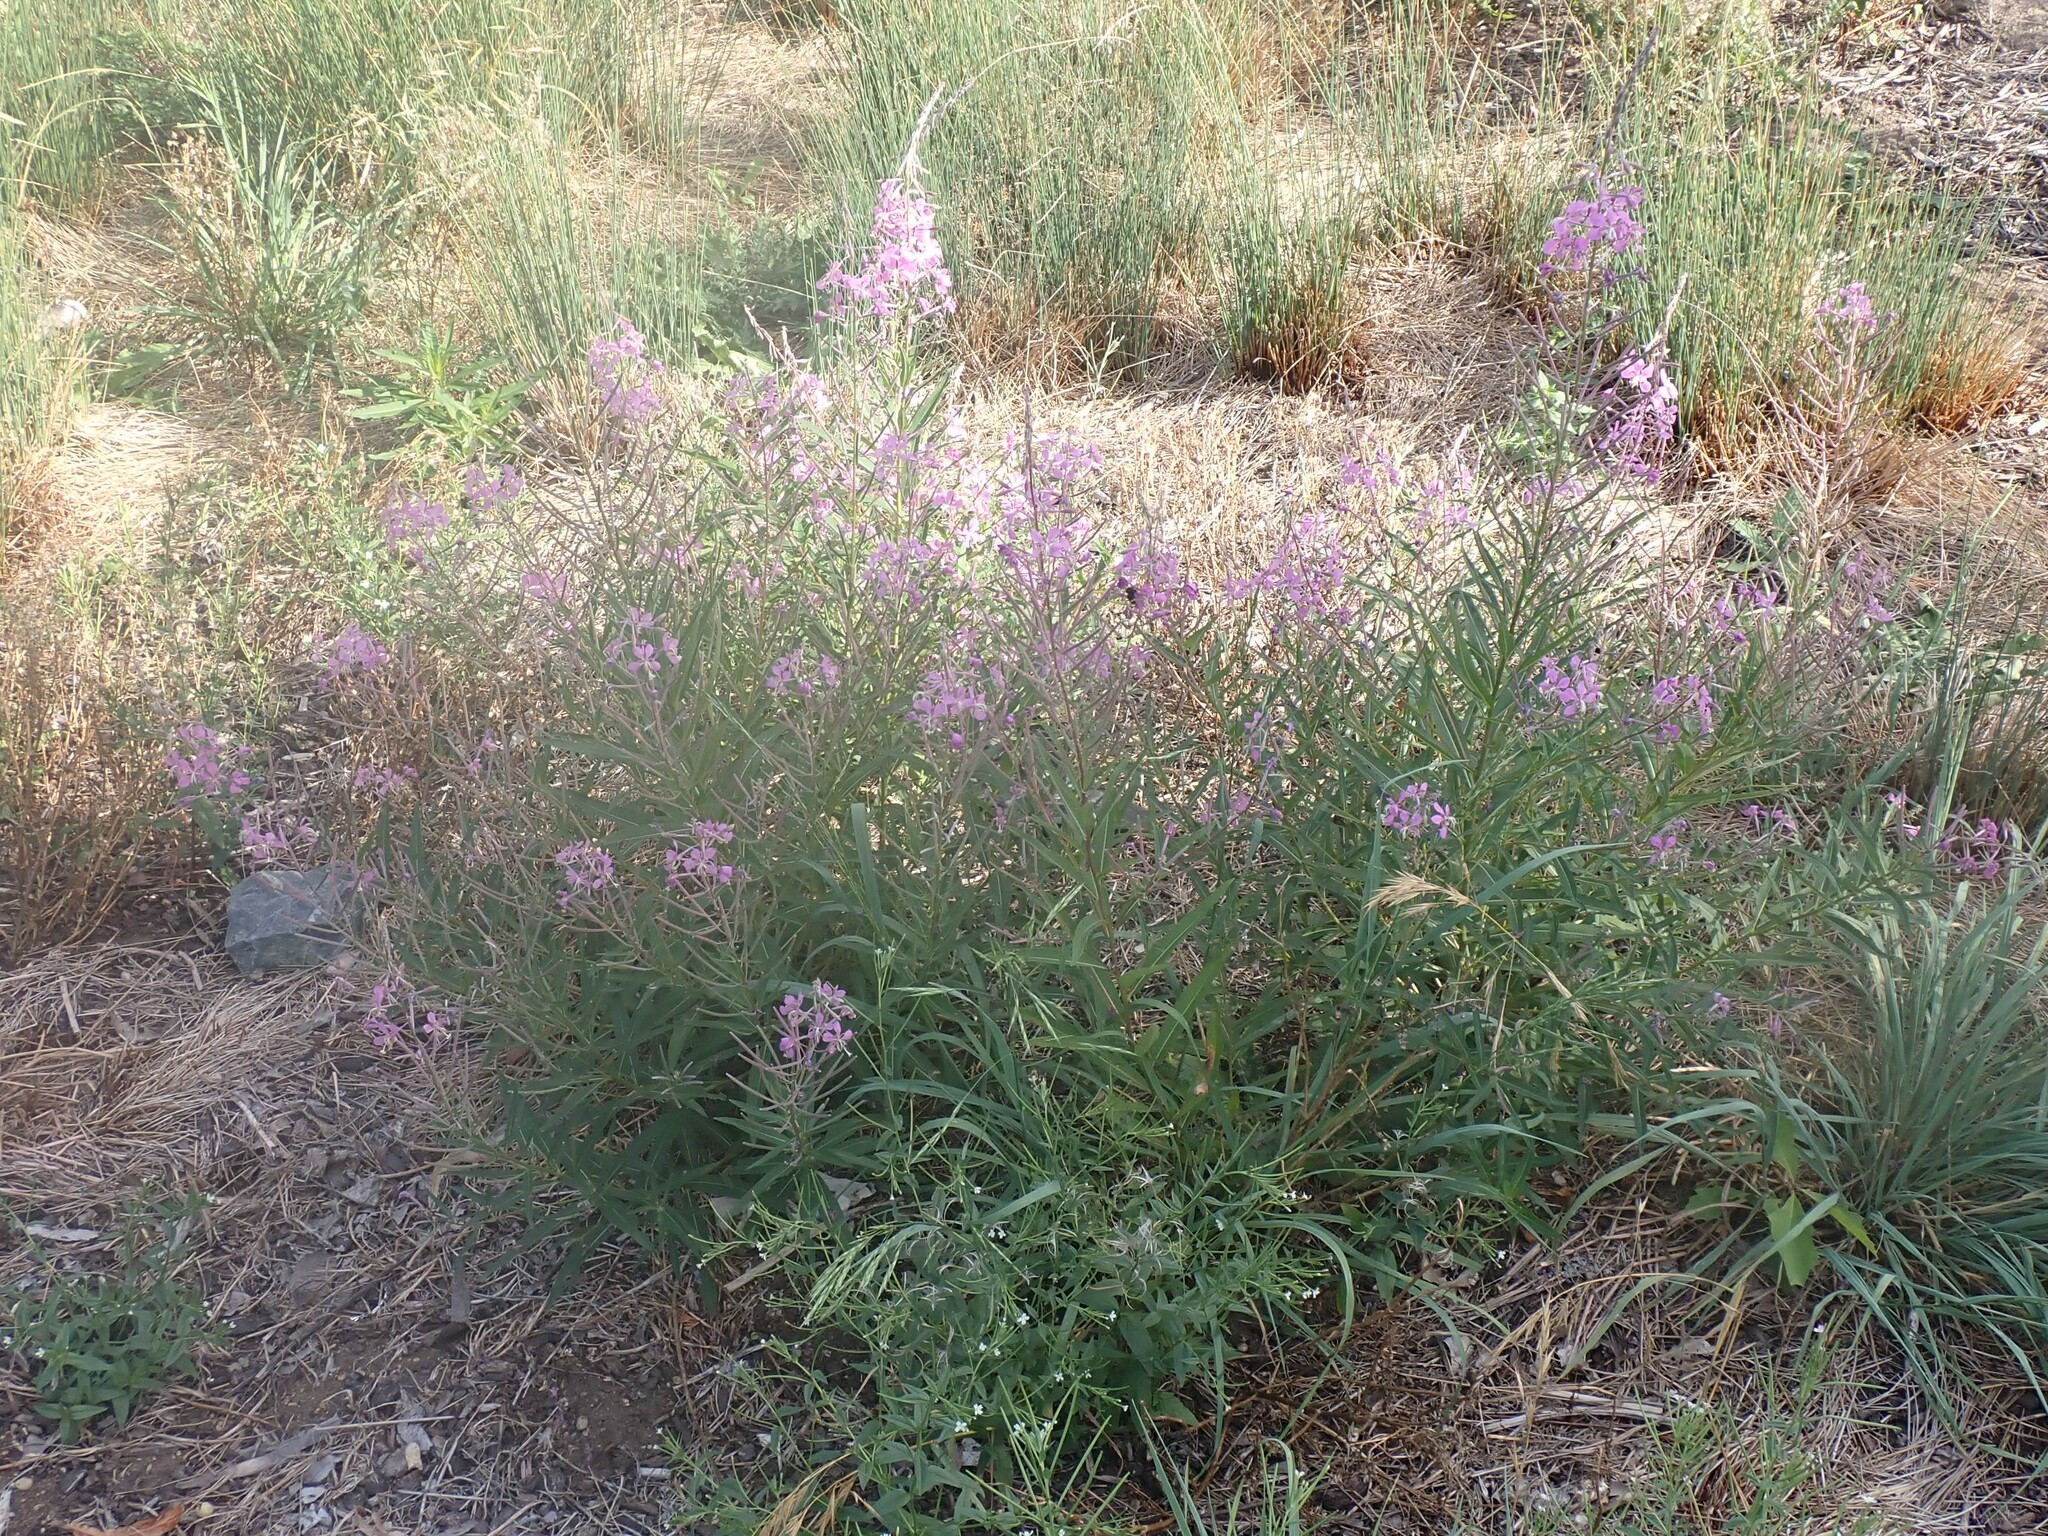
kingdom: Plantae
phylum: Tracheophyta
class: Magnoliopsida
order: Myrtales
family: Onagraceae
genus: Chamaenerion
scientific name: Chamaenerion angustifolium
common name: Fireweed
